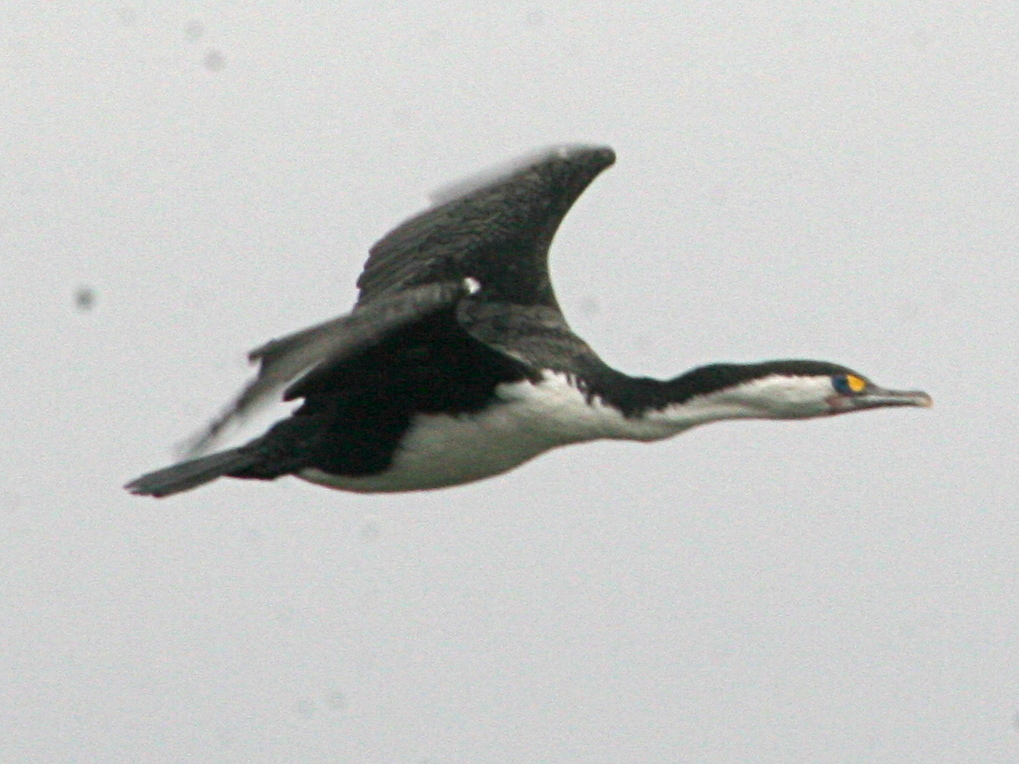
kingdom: Animalia
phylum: Chordata
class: Aves
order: Suliformes
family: Phalacrocoracidae
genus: Phalacrocorax
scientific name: Phalacrocorax varius
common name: Pied cormorant
